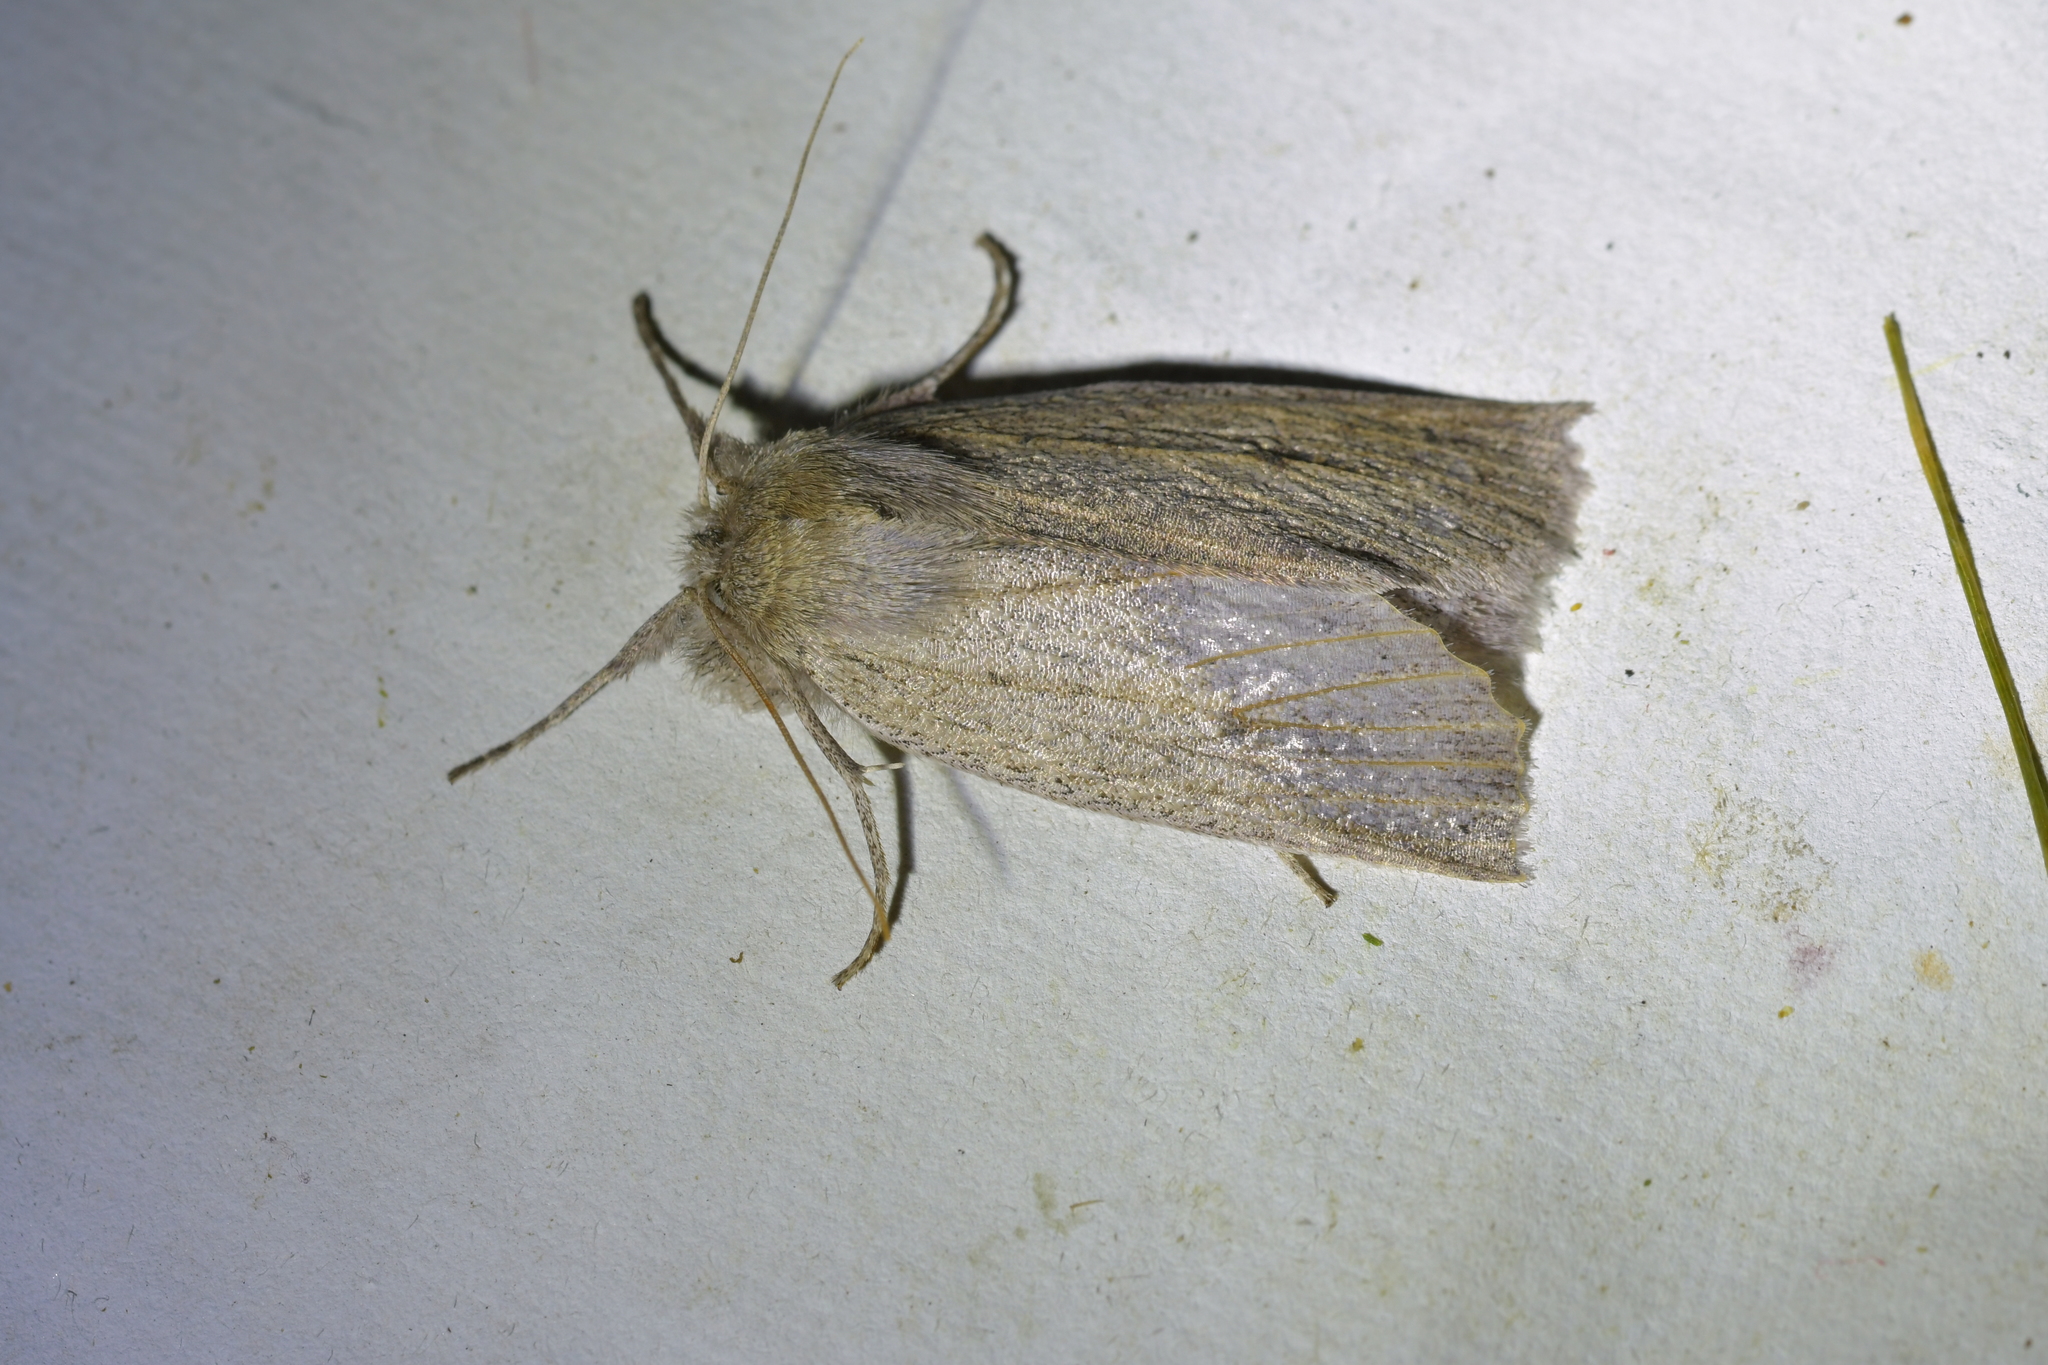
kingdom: Animalia
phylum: Arthropoda
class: Insecta
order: Lepidoptera
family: Geometridae
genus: Declana
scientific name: Declana leptomera
